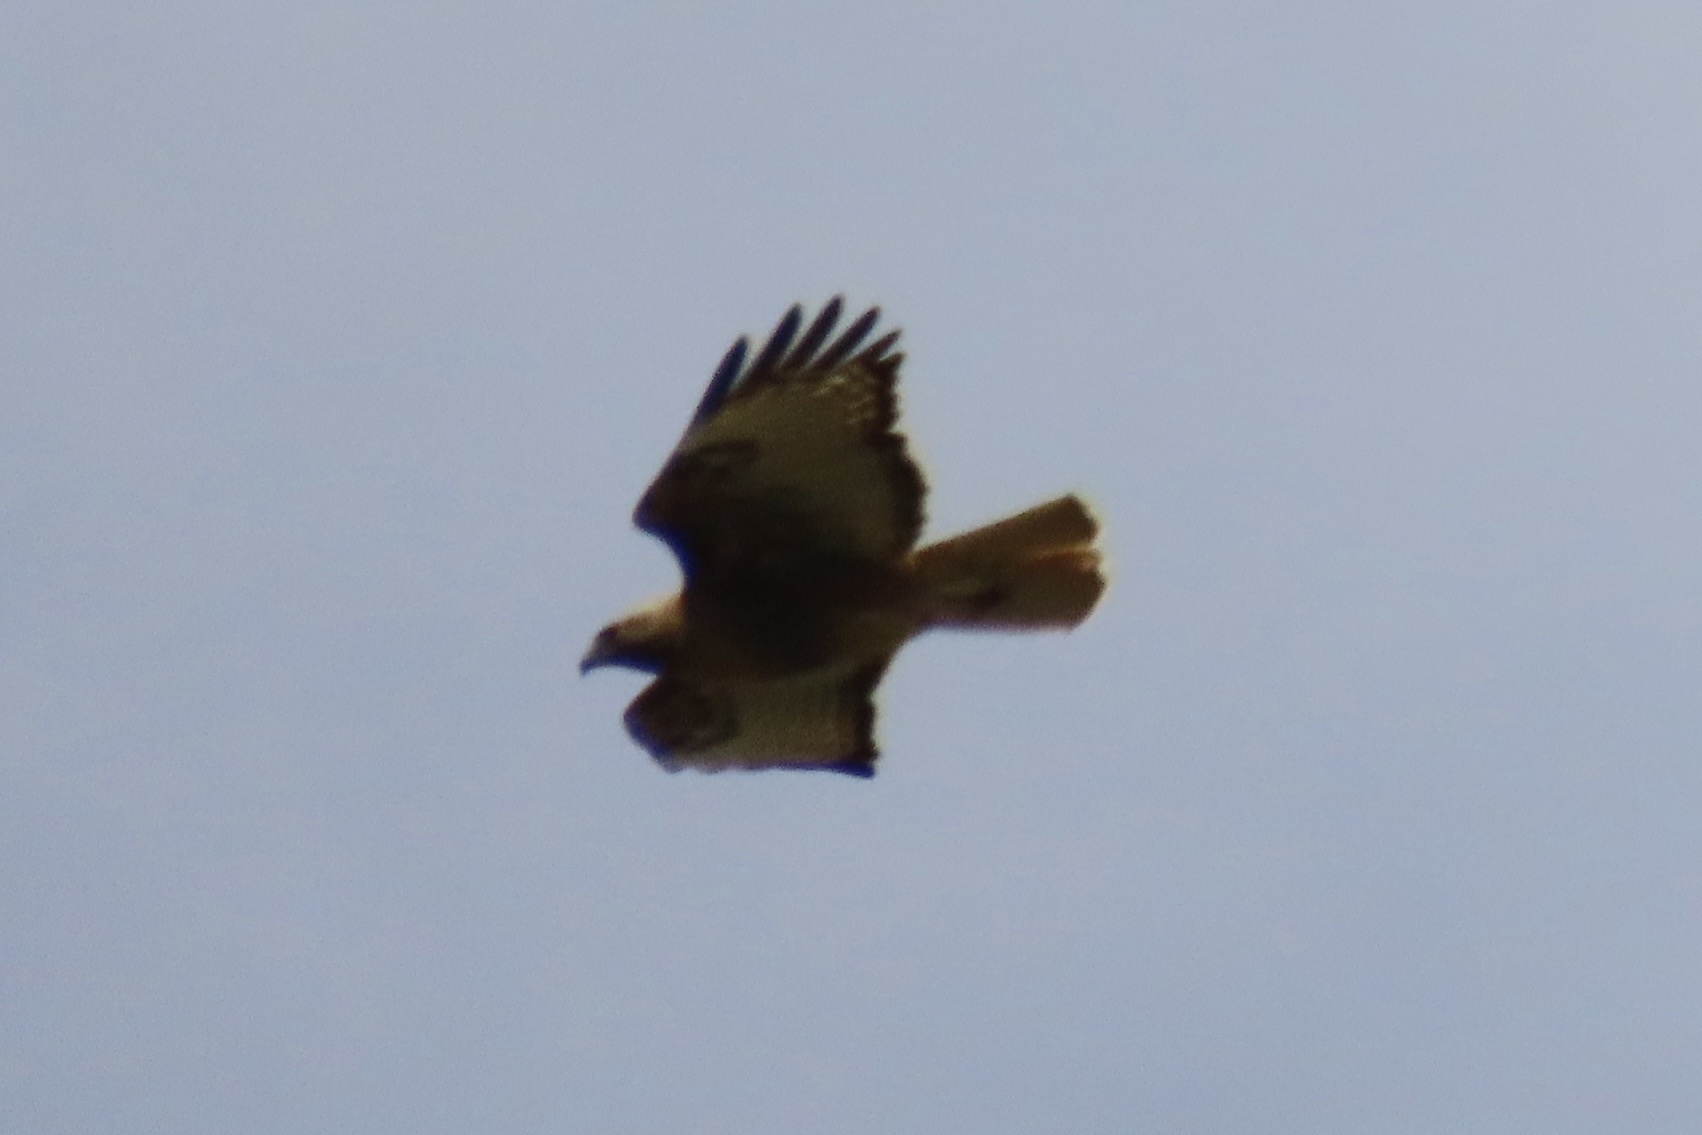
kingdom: Animalia
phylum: Chordata
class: Aves
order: Accipitriformes
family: Accipitridae
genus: Buteo
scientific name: Buteo jamaicensis
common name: Red-tailed hawk
